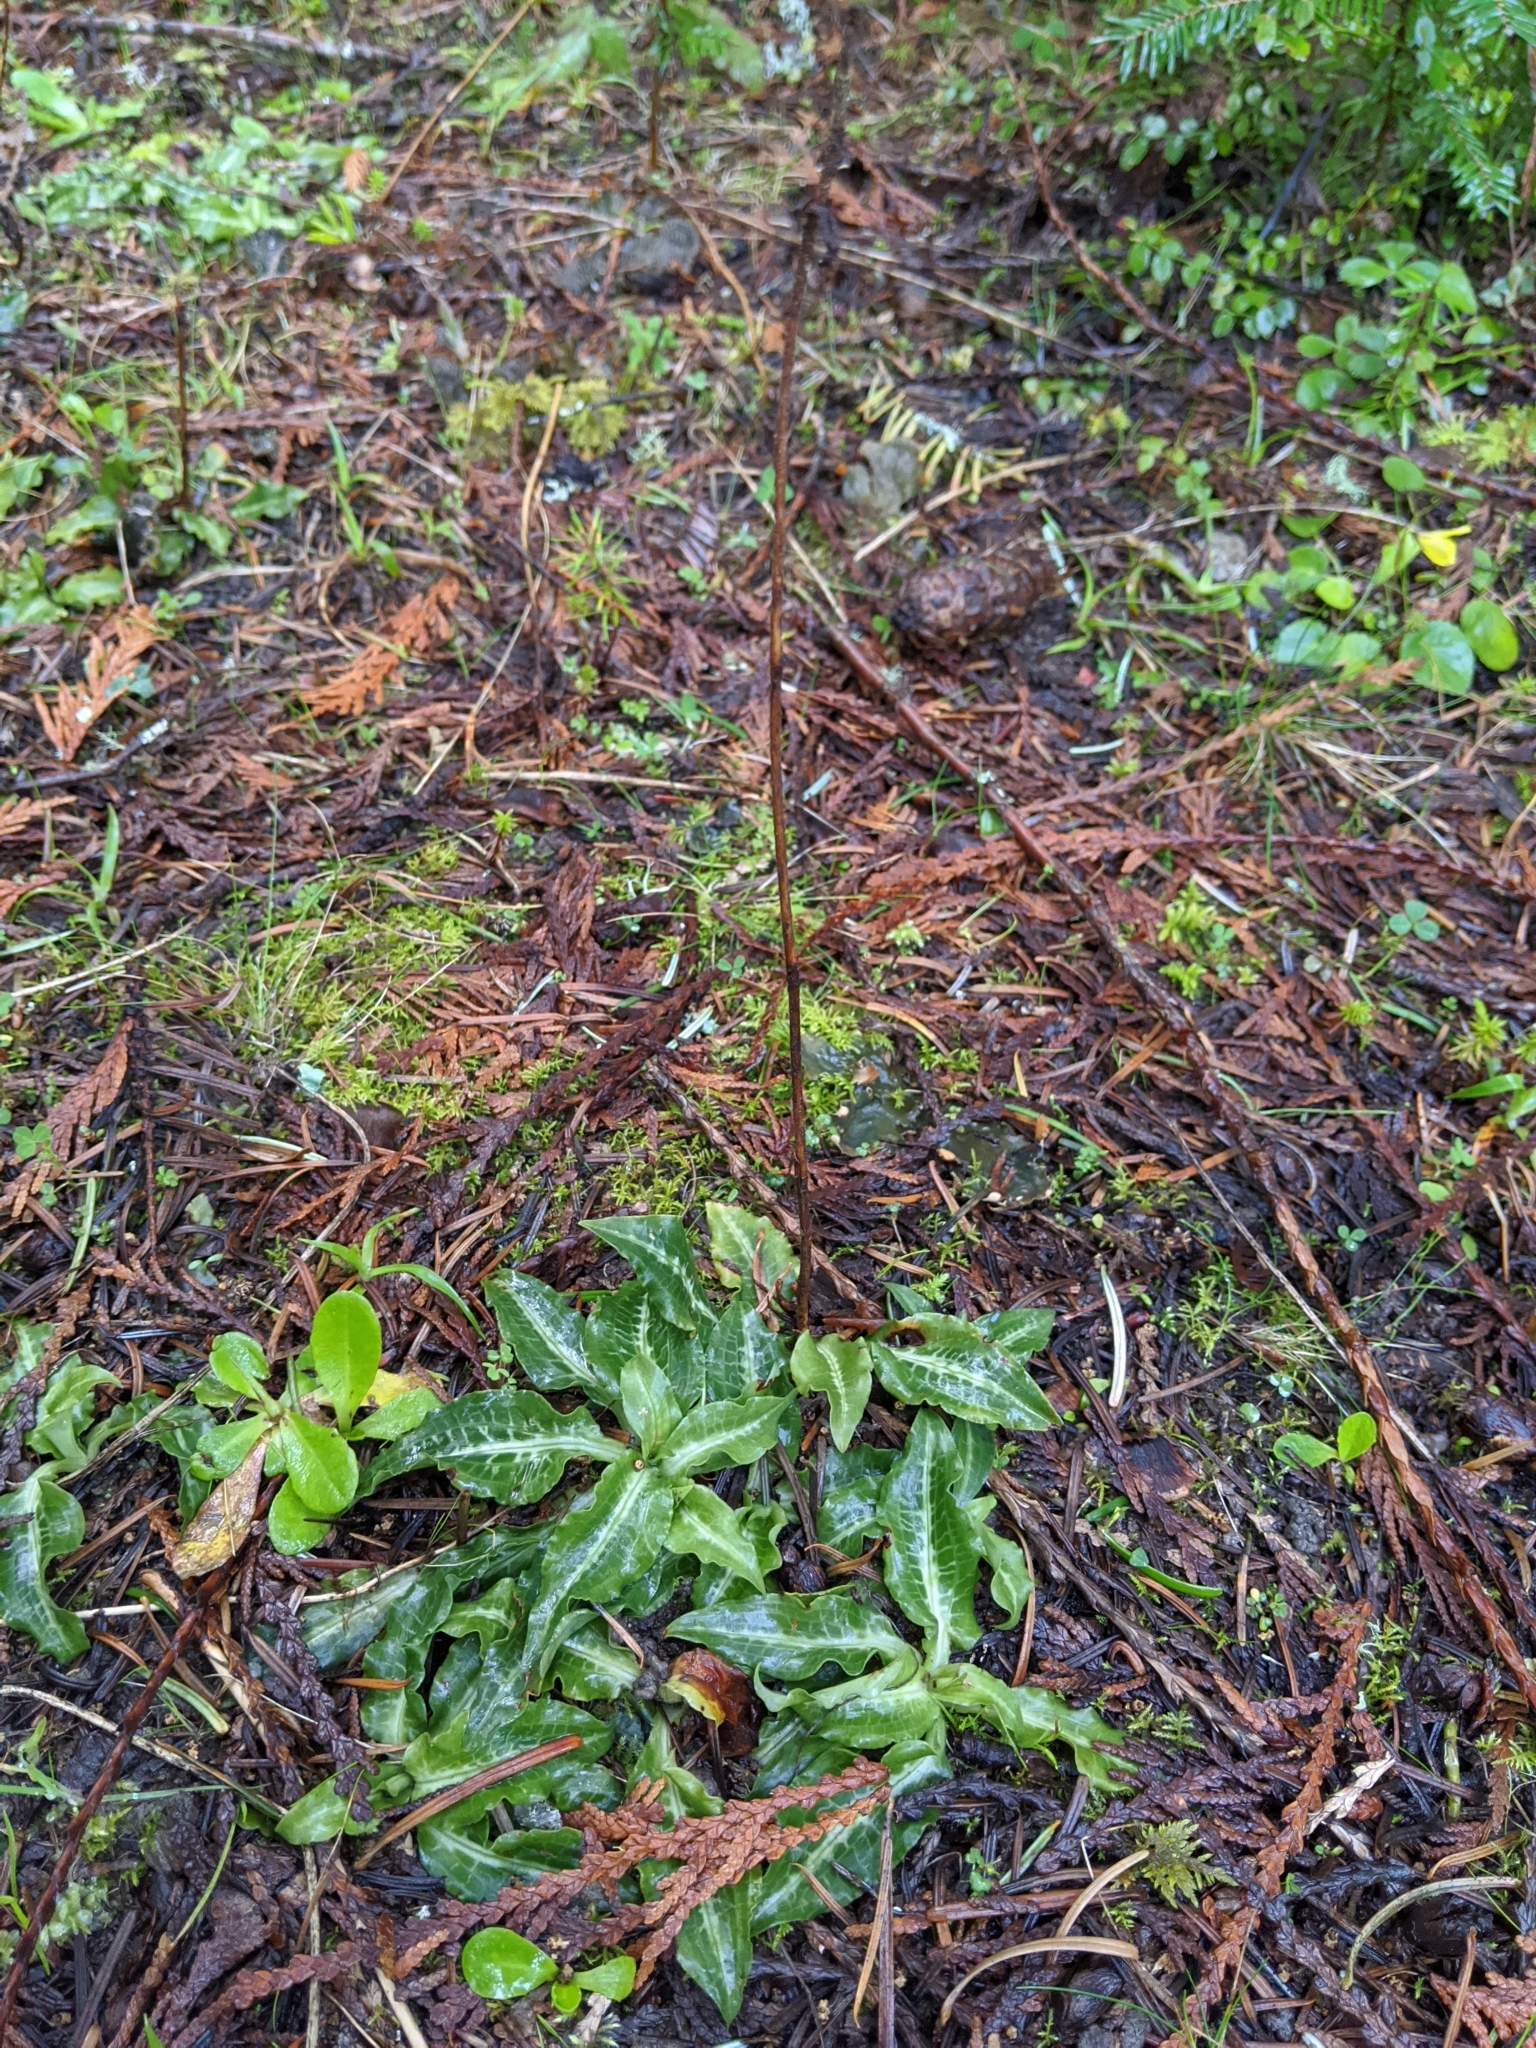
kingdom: Plantae
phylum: Tracheophyta
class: Liliopsida
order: Asparagales
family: Orchidaceae
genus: Goodyera
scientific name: Goodyera oblongifolia
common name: Giant rattlesnake-plantain
